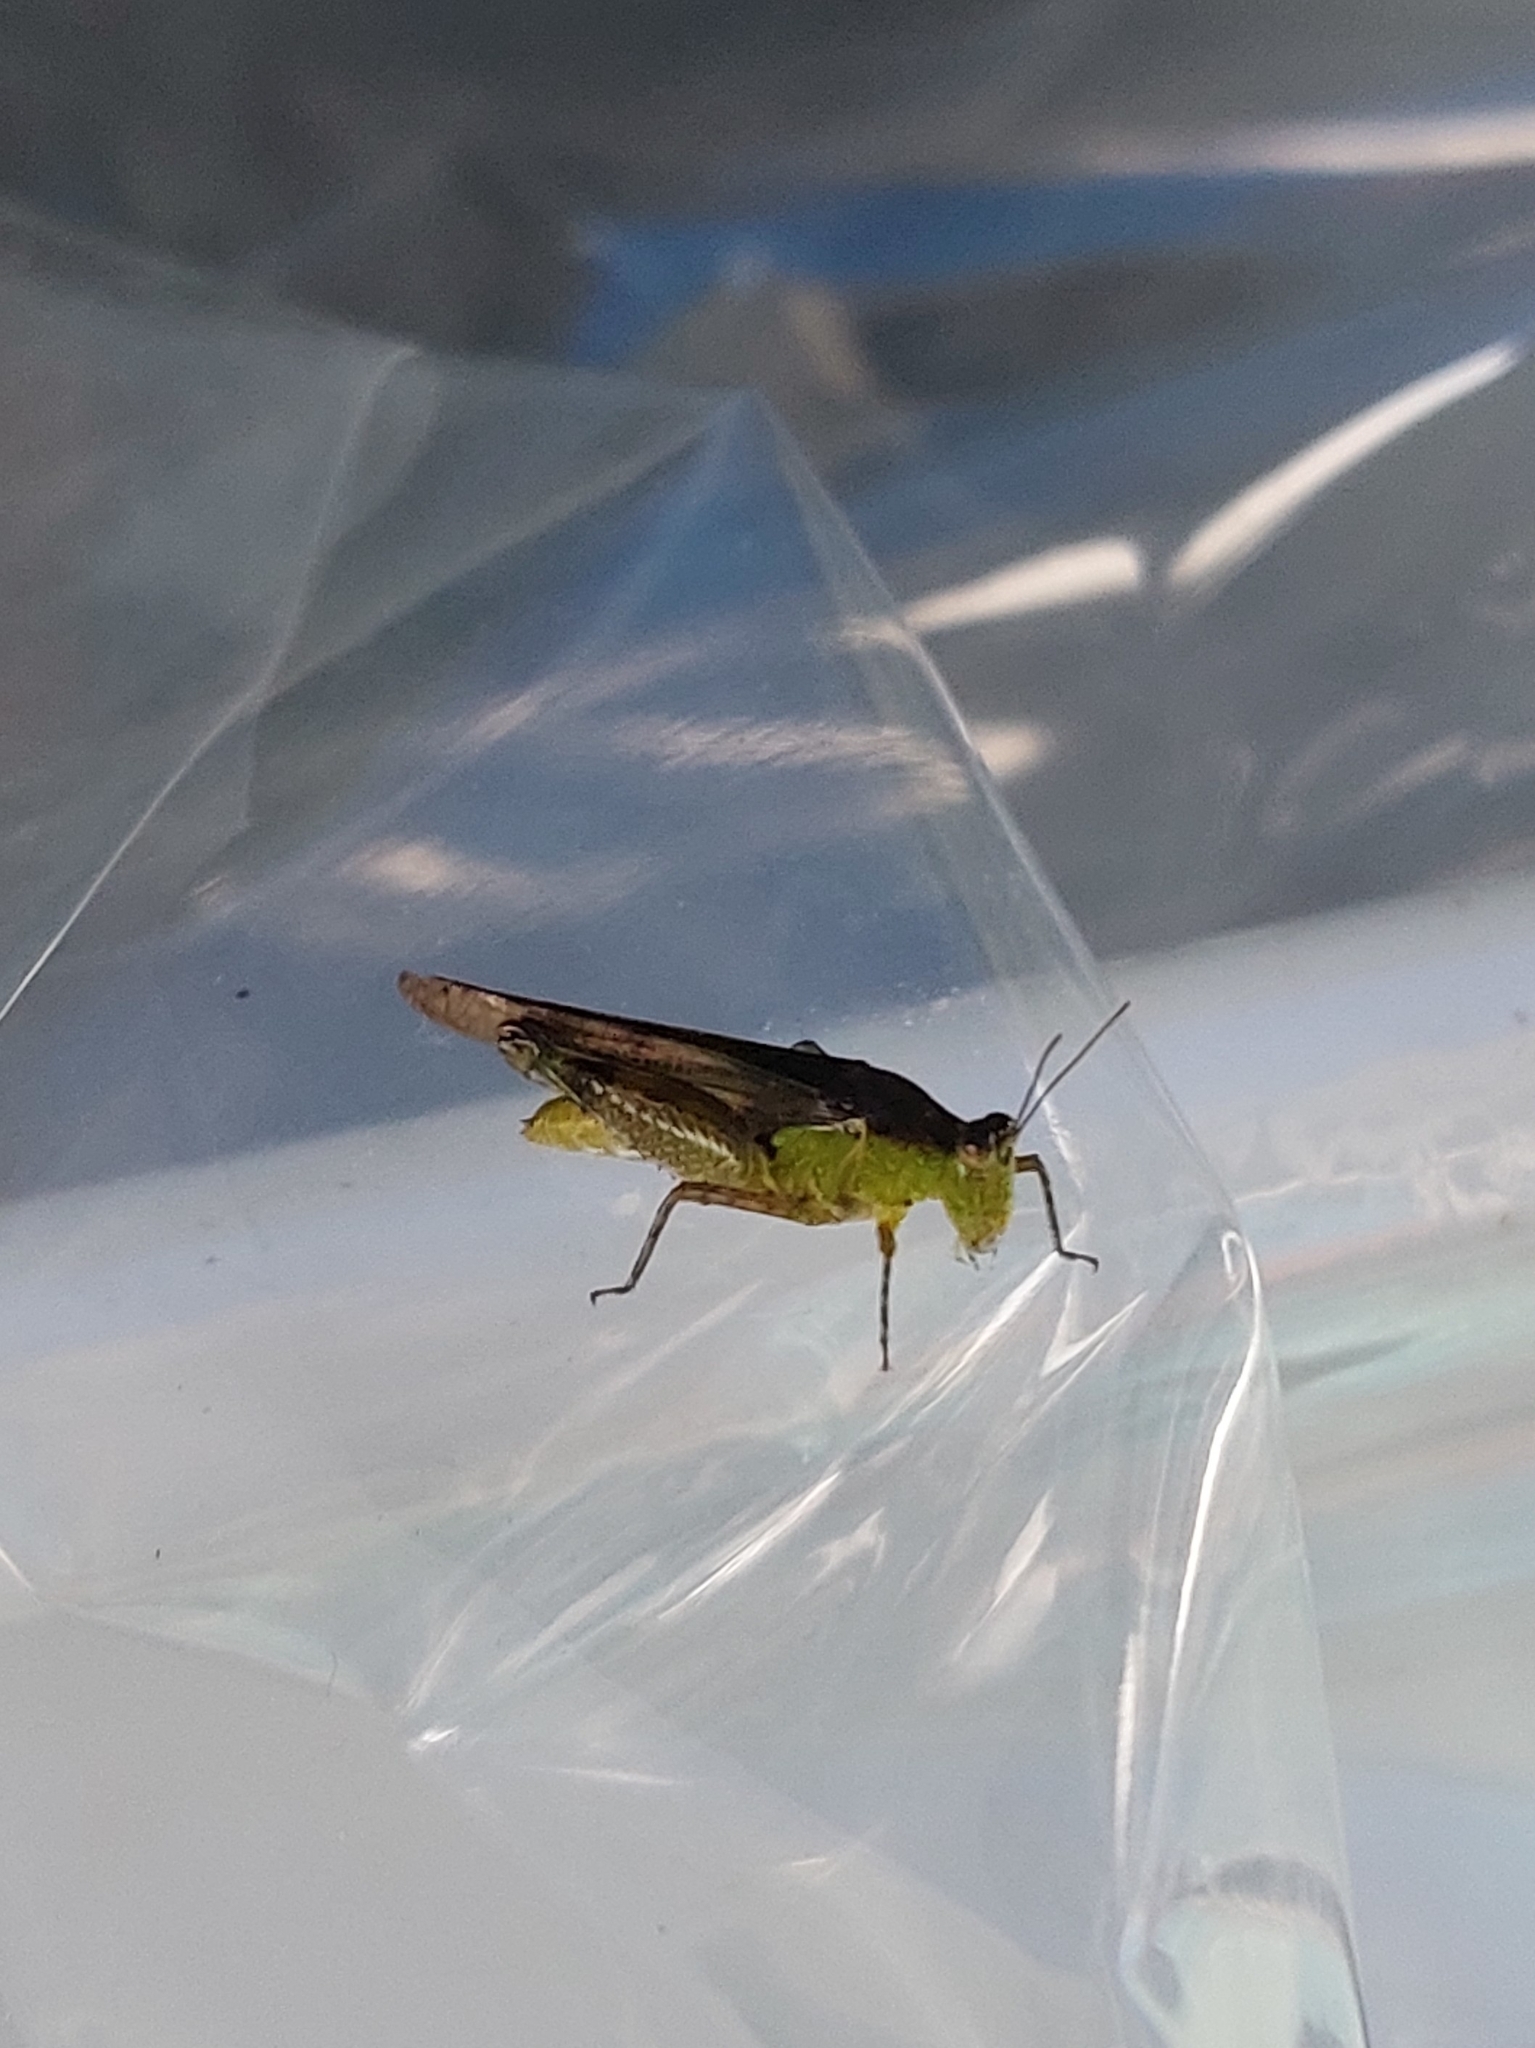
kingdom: Animalia
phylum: Arthropoda
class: Insecta
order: Orthoptera
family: Acrididae
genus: Paulinia
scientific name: Paulinia acuminata
